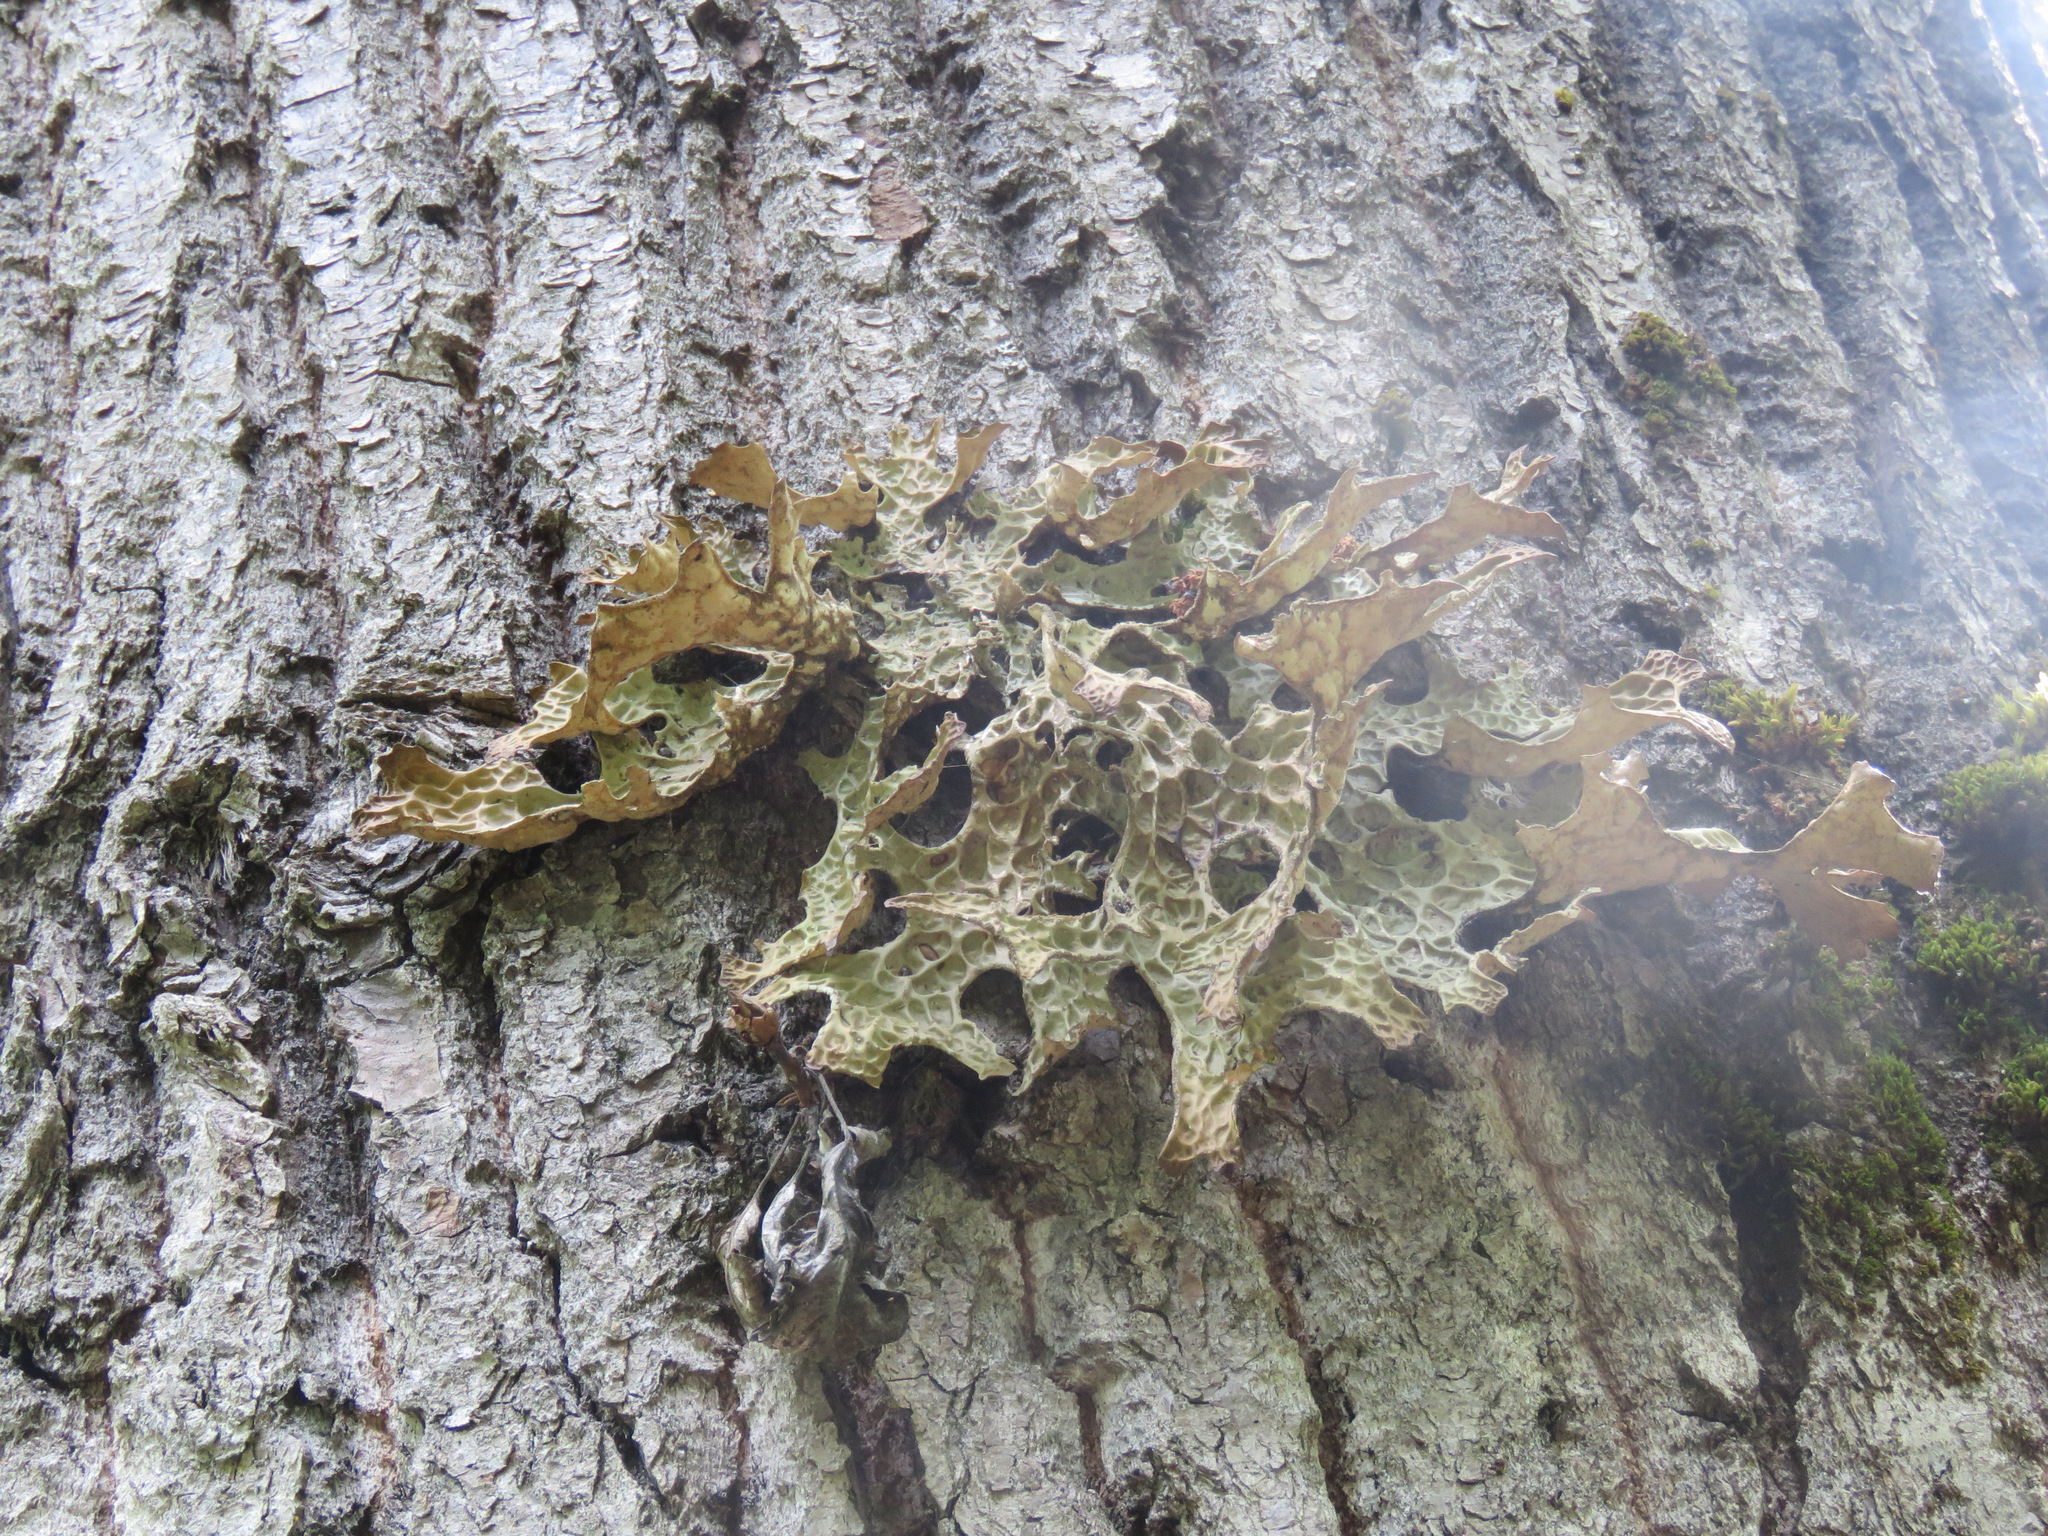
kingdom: Fungi
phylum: Ascomycota
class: Lecanoromycetes
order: Peltigerales
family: Lobariaceae
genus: Lobaria
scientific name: Lobaria pulmonaria
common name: Lungwort
